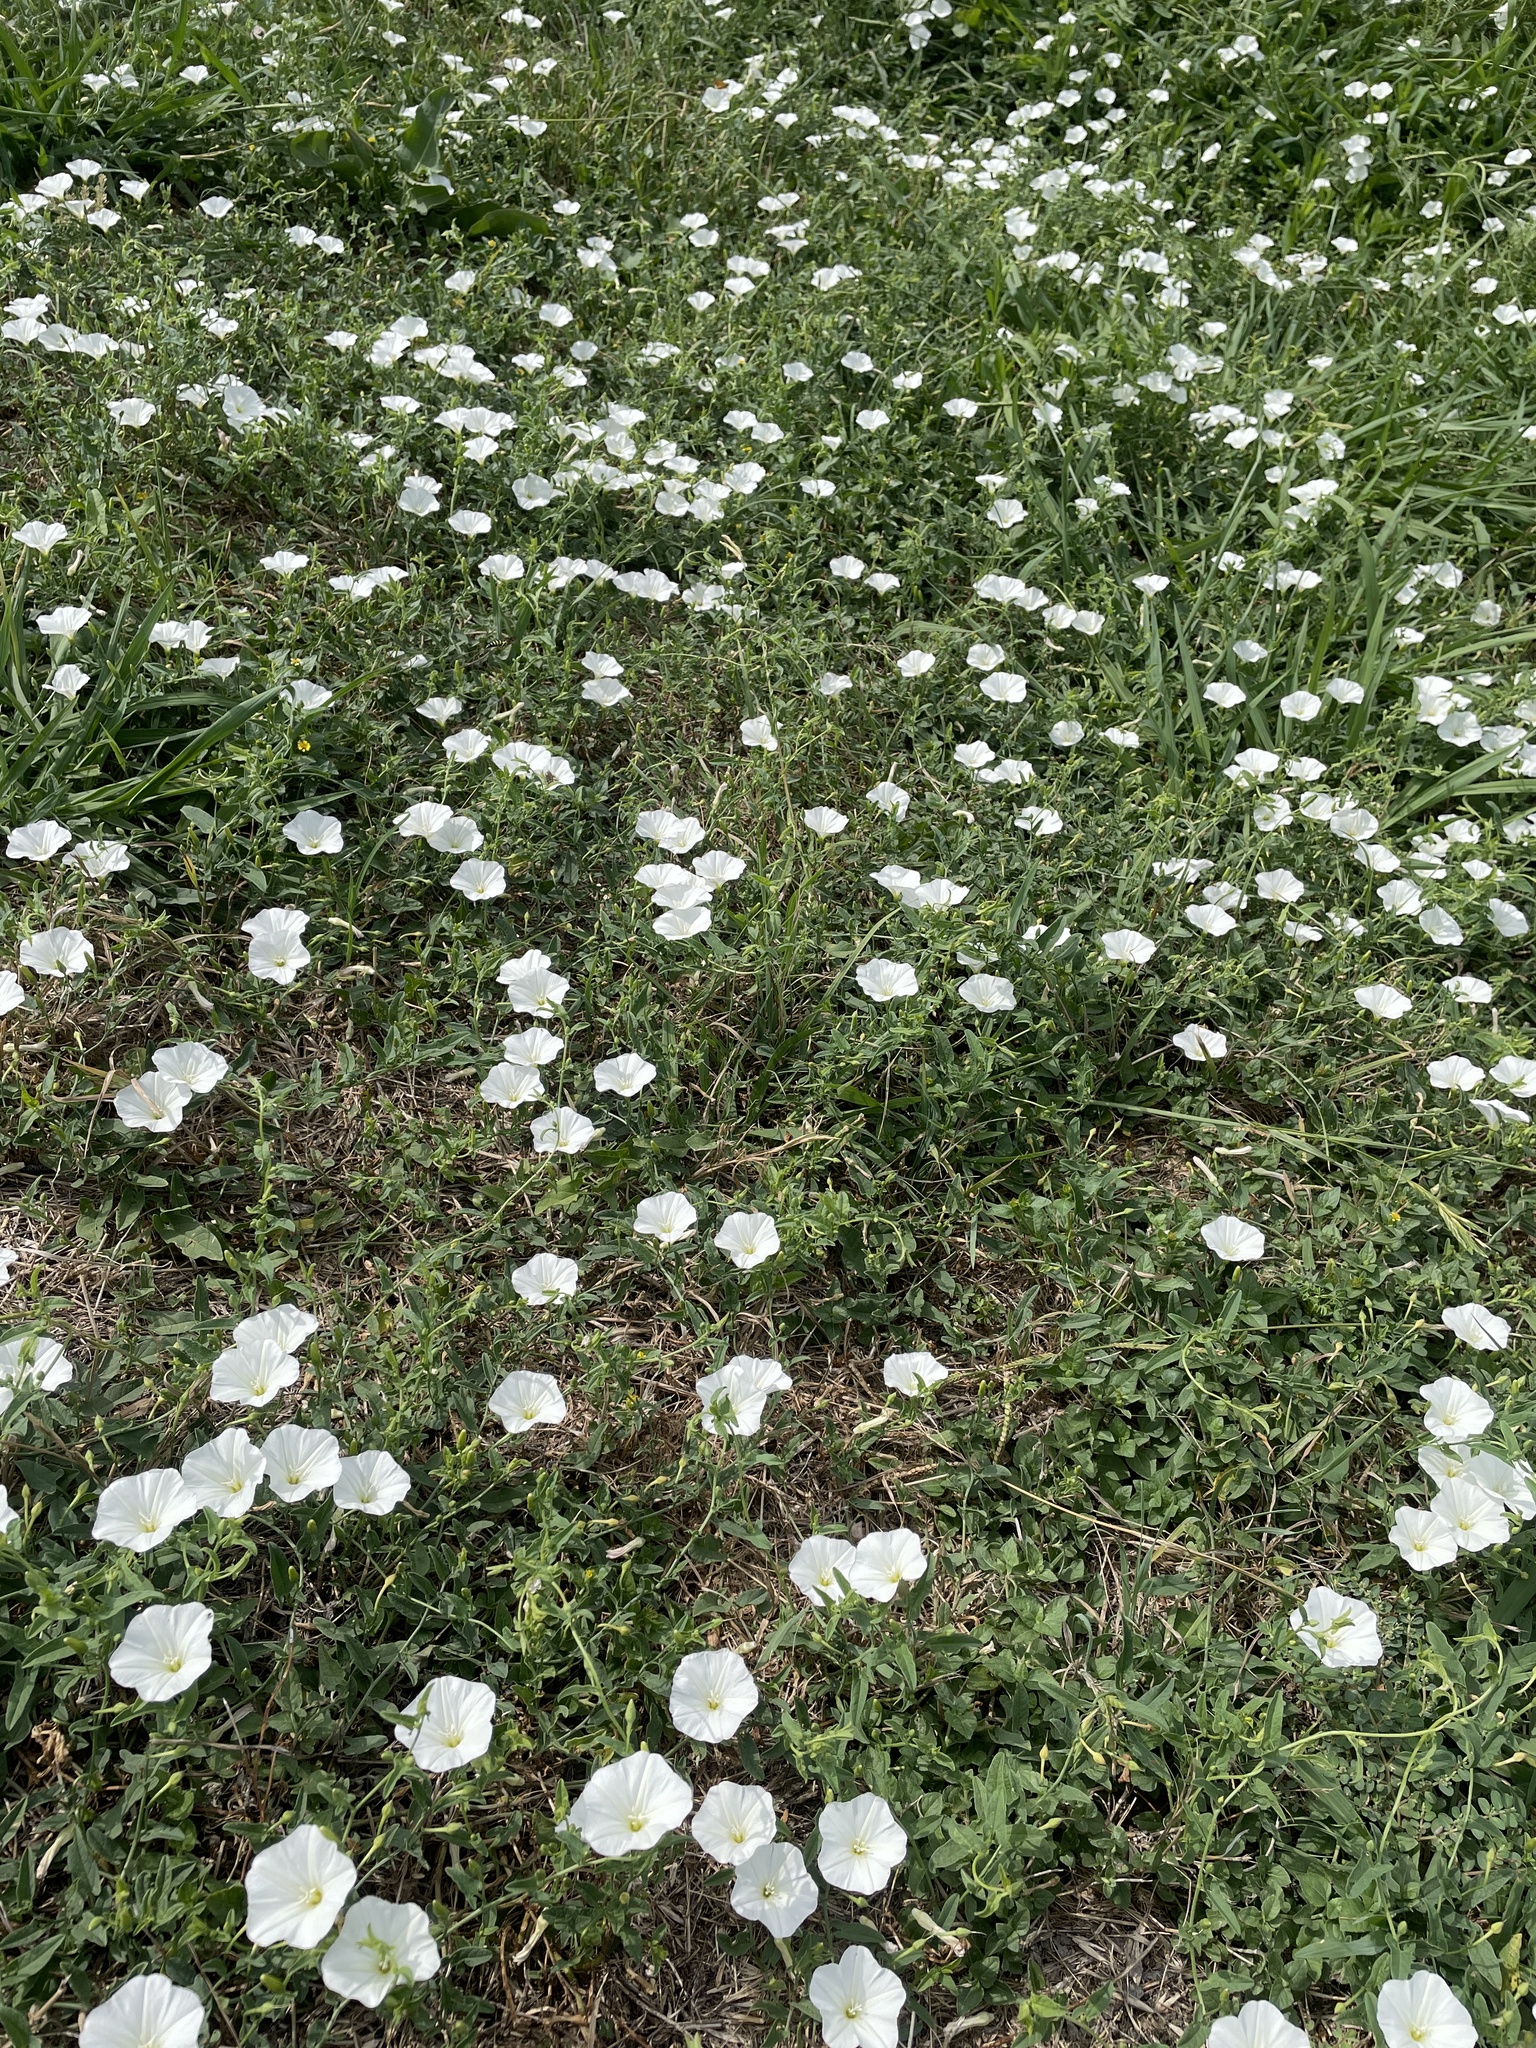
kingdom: Plantae
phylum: Tracheophyta
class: Magnoliopsida
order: Solanales
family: Convolvulaceae
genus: Convolvulus
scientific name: Convolvulus arvensis
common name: Field bindweed
